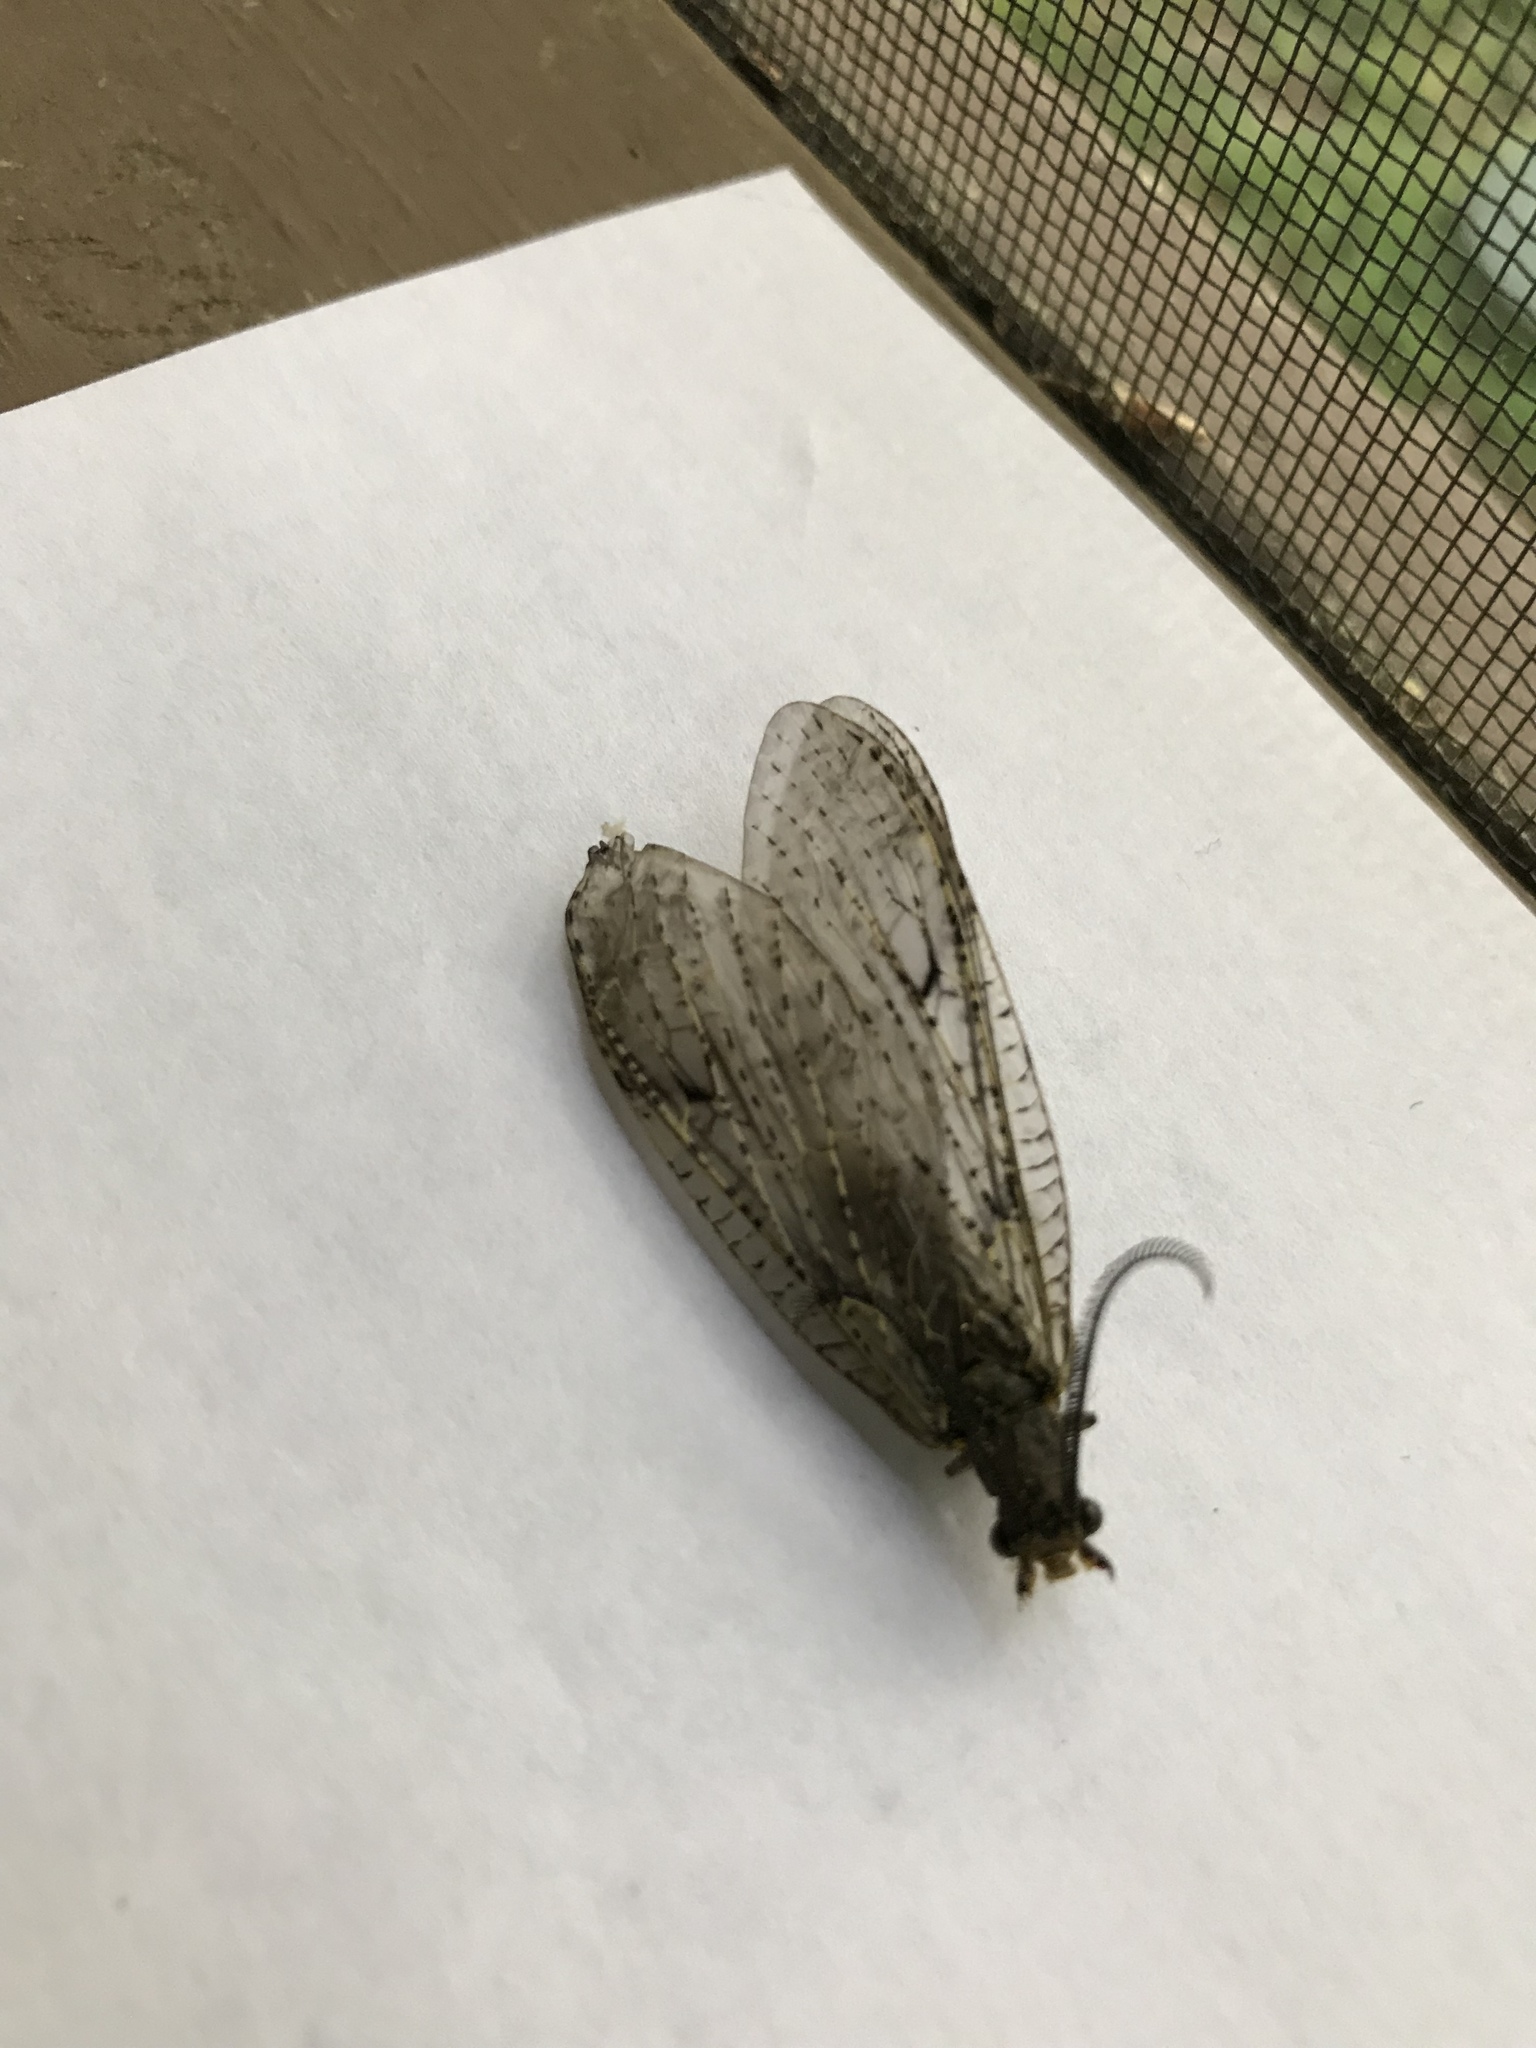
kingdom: Animalia
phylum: Arthropoda
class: Insecta
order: Megaloptera
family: Corydalidae
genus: Chauliodes
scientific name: Chauliodes rastricornis
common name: Spring fishfly
